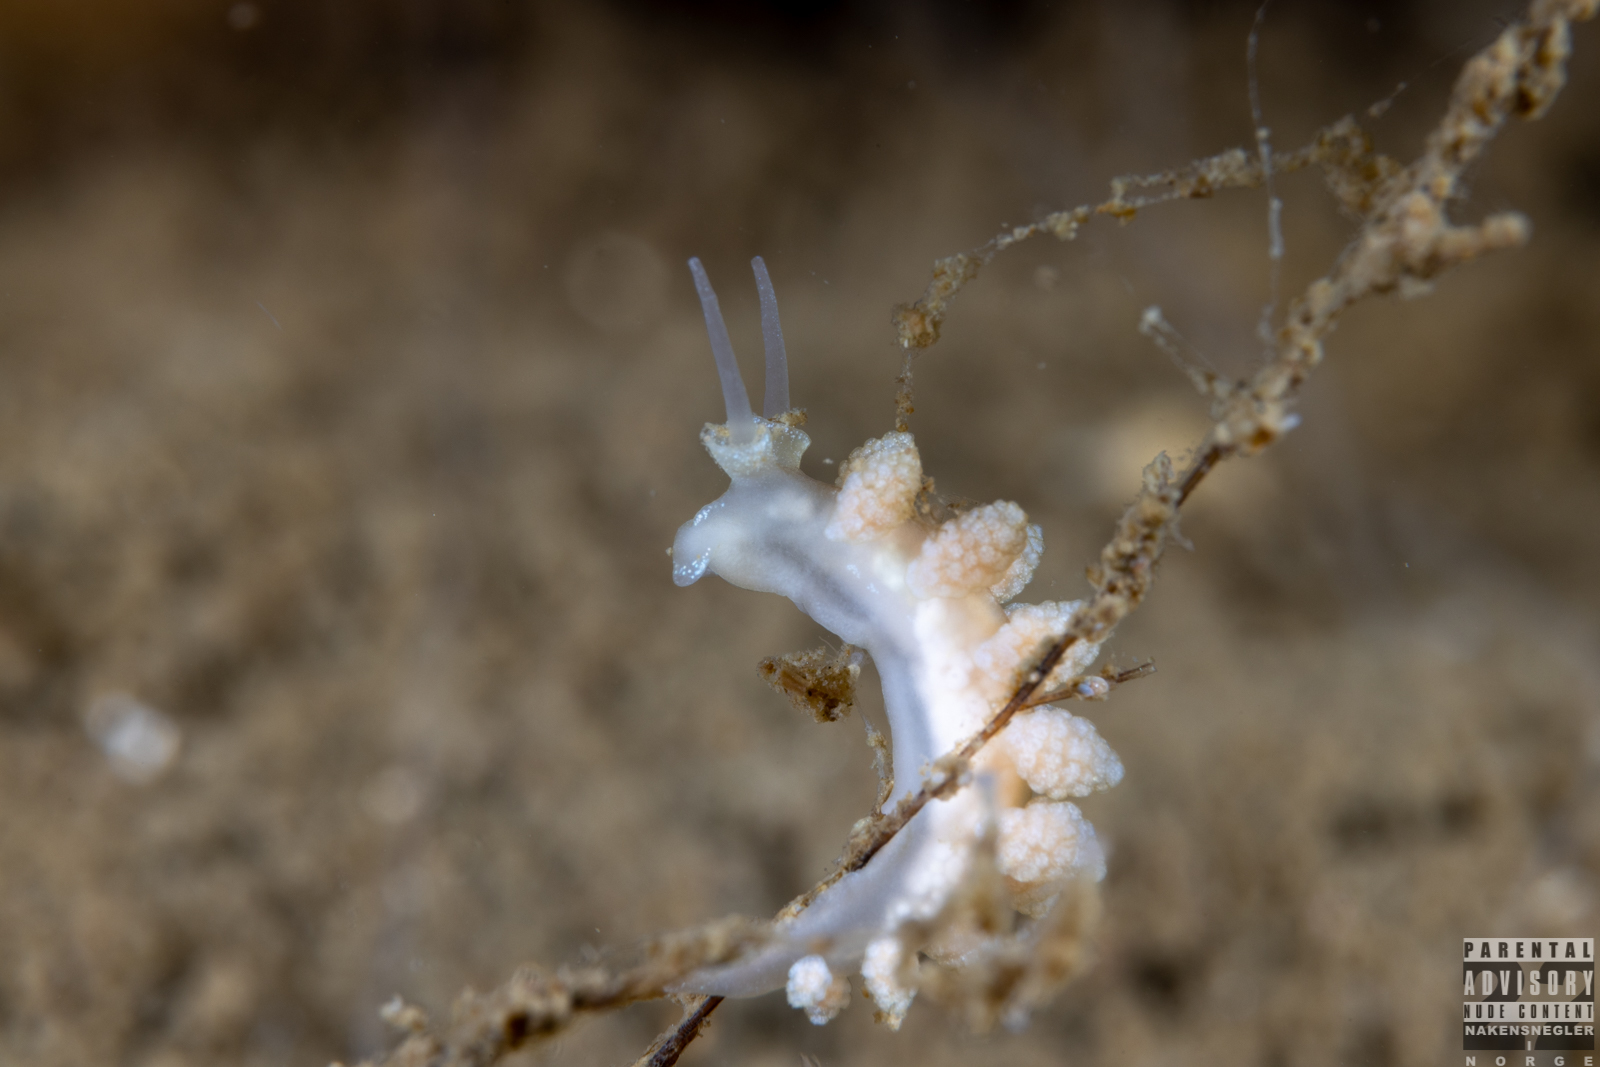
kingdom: Animalia
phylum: Mollusca
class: Gastropoda
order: Nudibranchia
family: Dotidae
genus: Doto
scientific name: Doto fragilis
